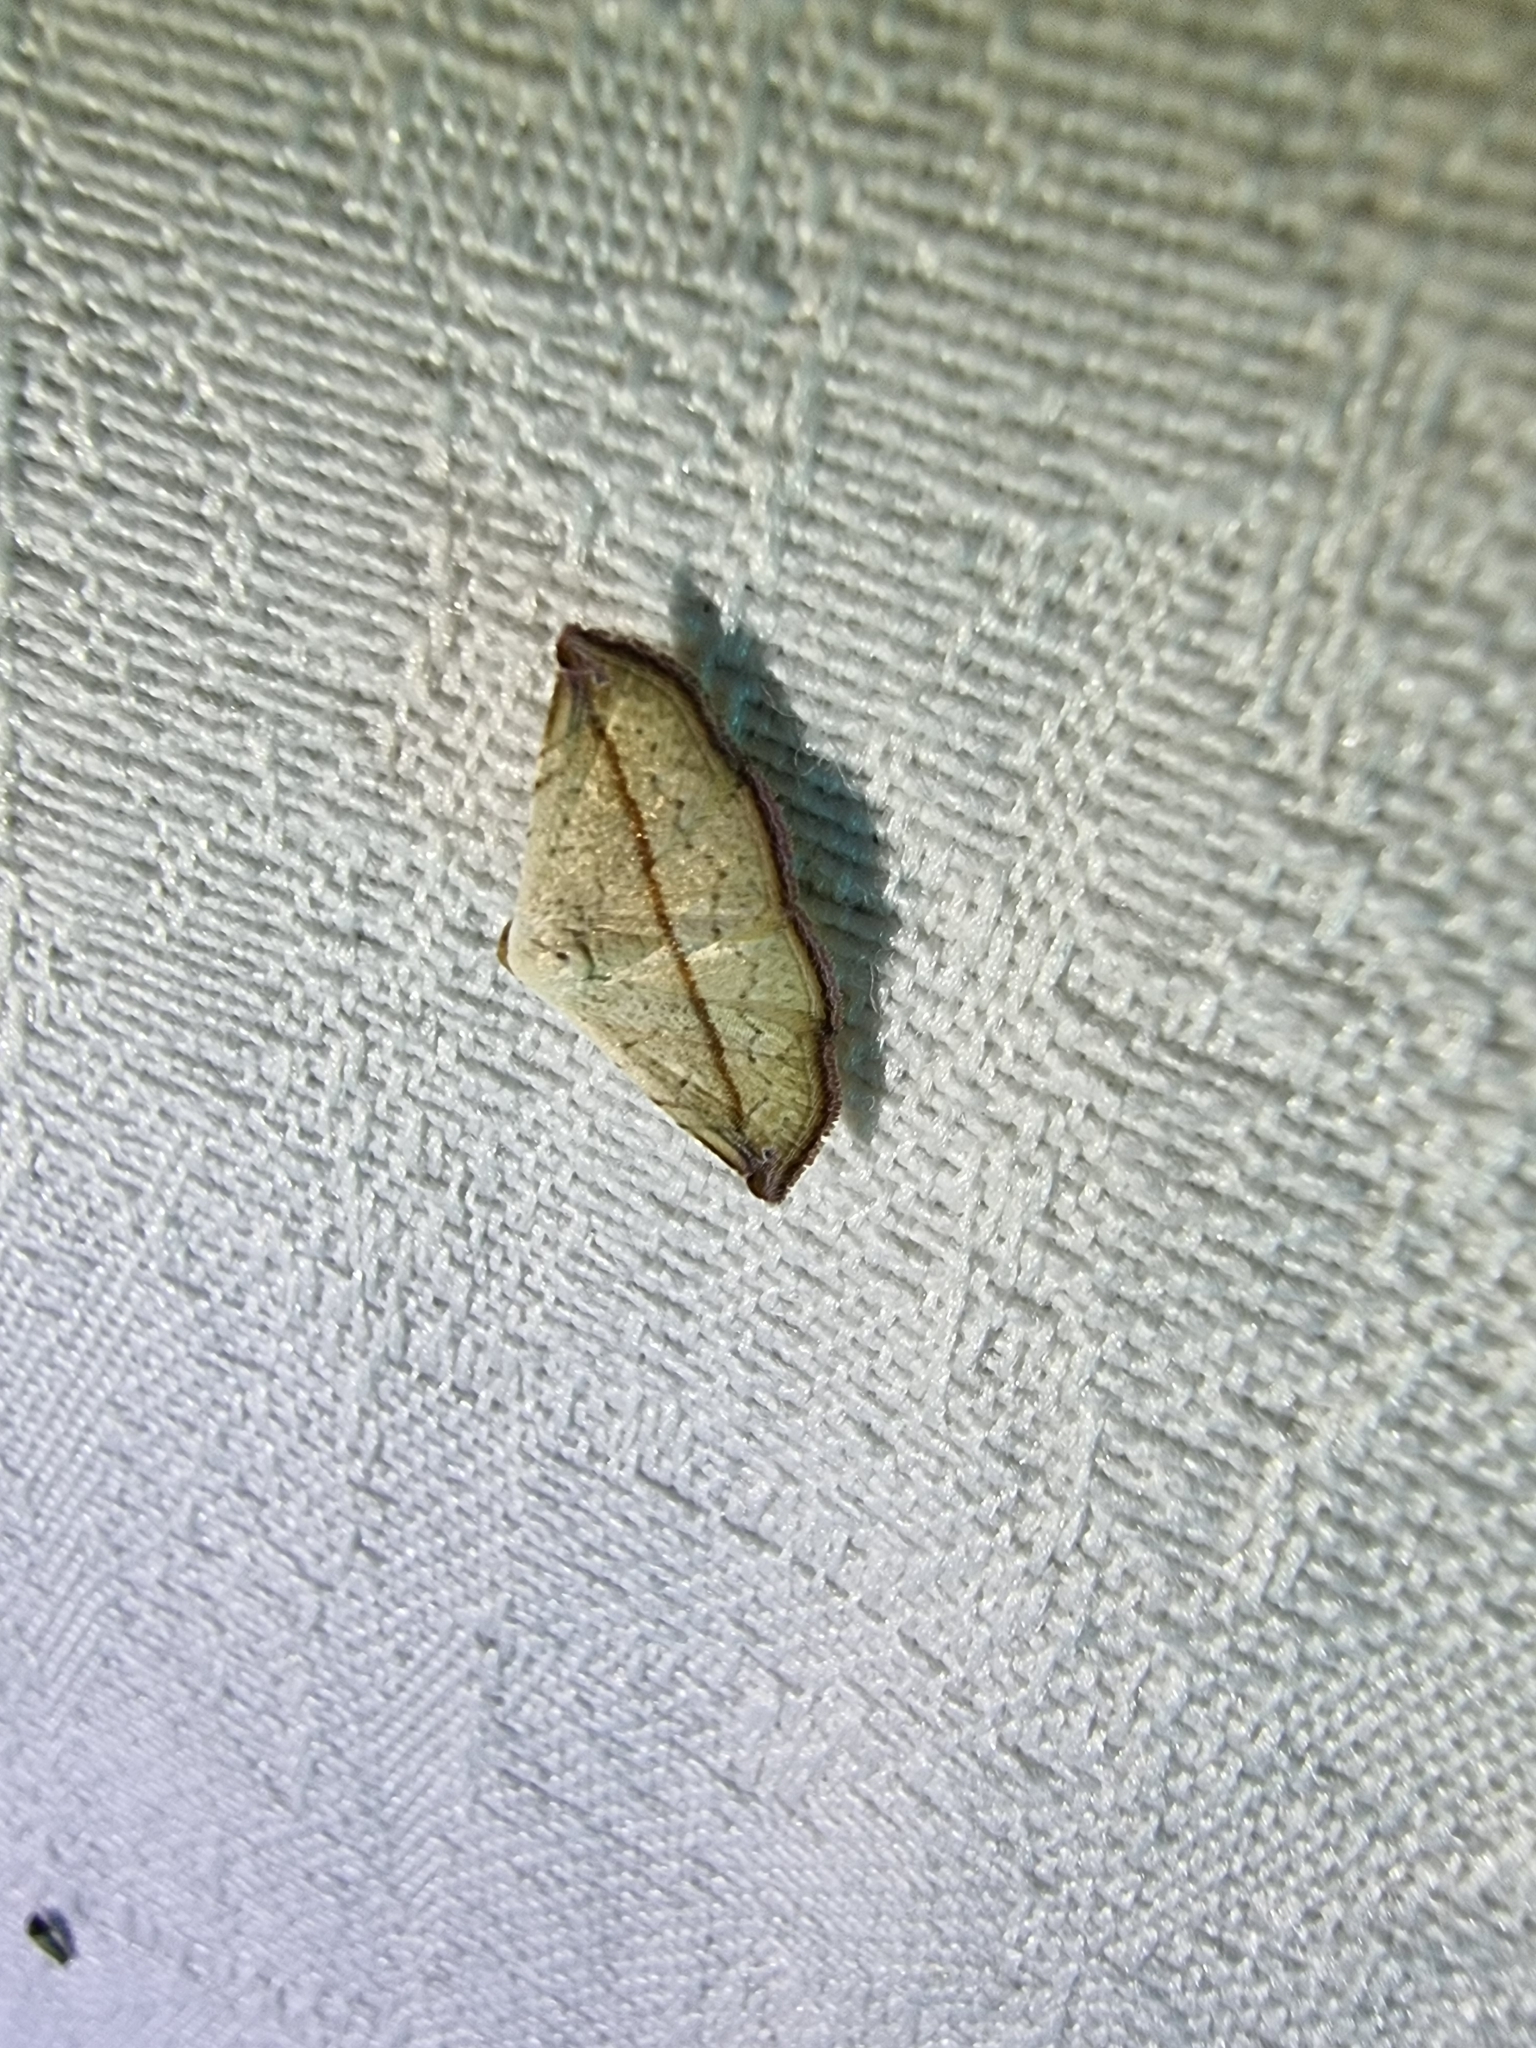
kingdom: Animalia
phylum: Arthropoda
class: Insecta
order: Lepidoptera
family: Noctuidae
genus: Eublemma
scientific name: Eublemma perversicolor
